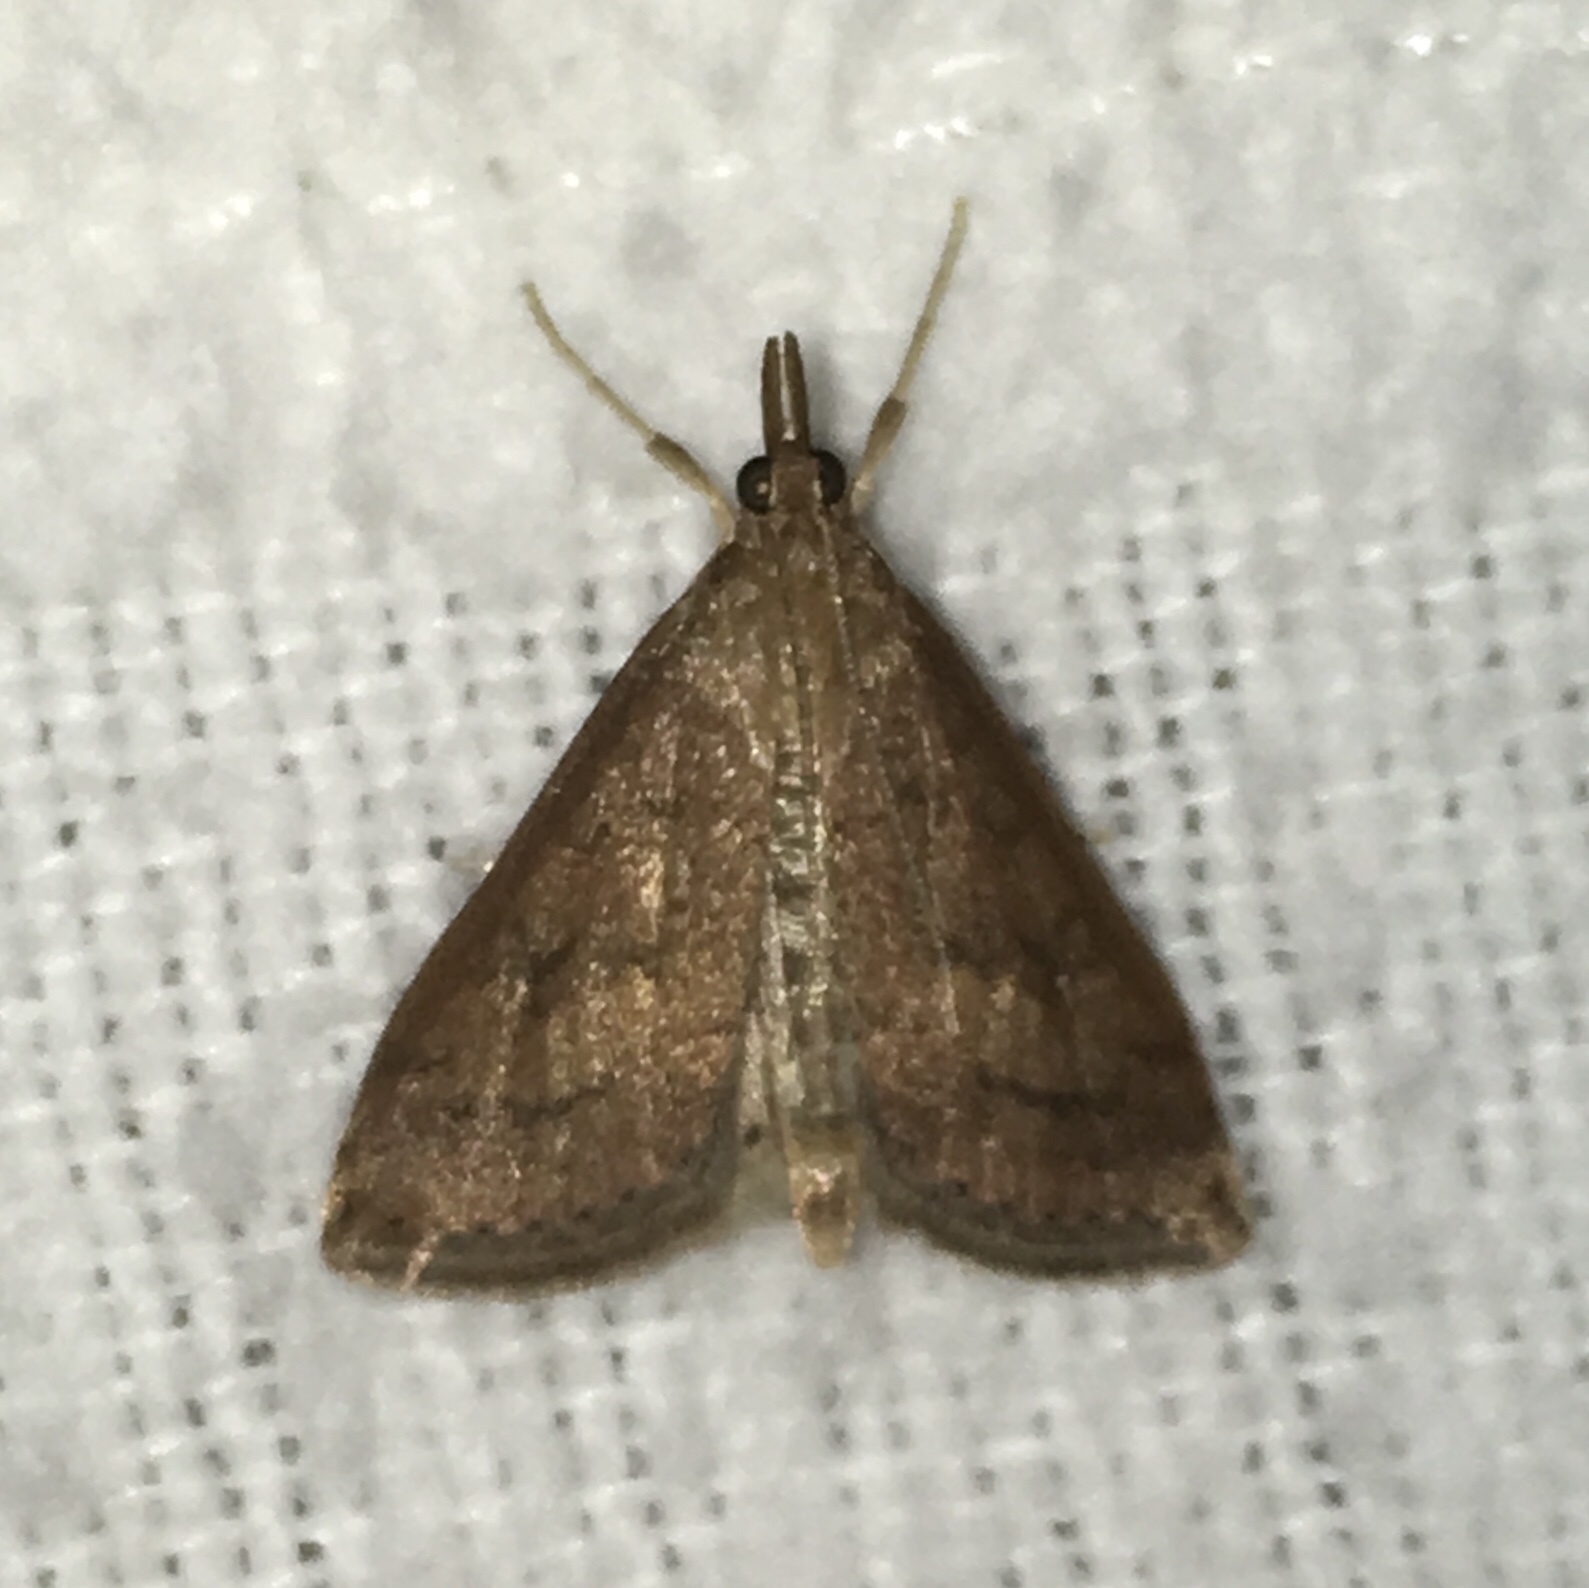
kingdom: Animalia
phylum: Arthropoda
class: Insecta
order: Lepidoptera
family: Crambidae
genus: Udea
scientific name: Udea rubigalis
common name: Celery leaftier moth
